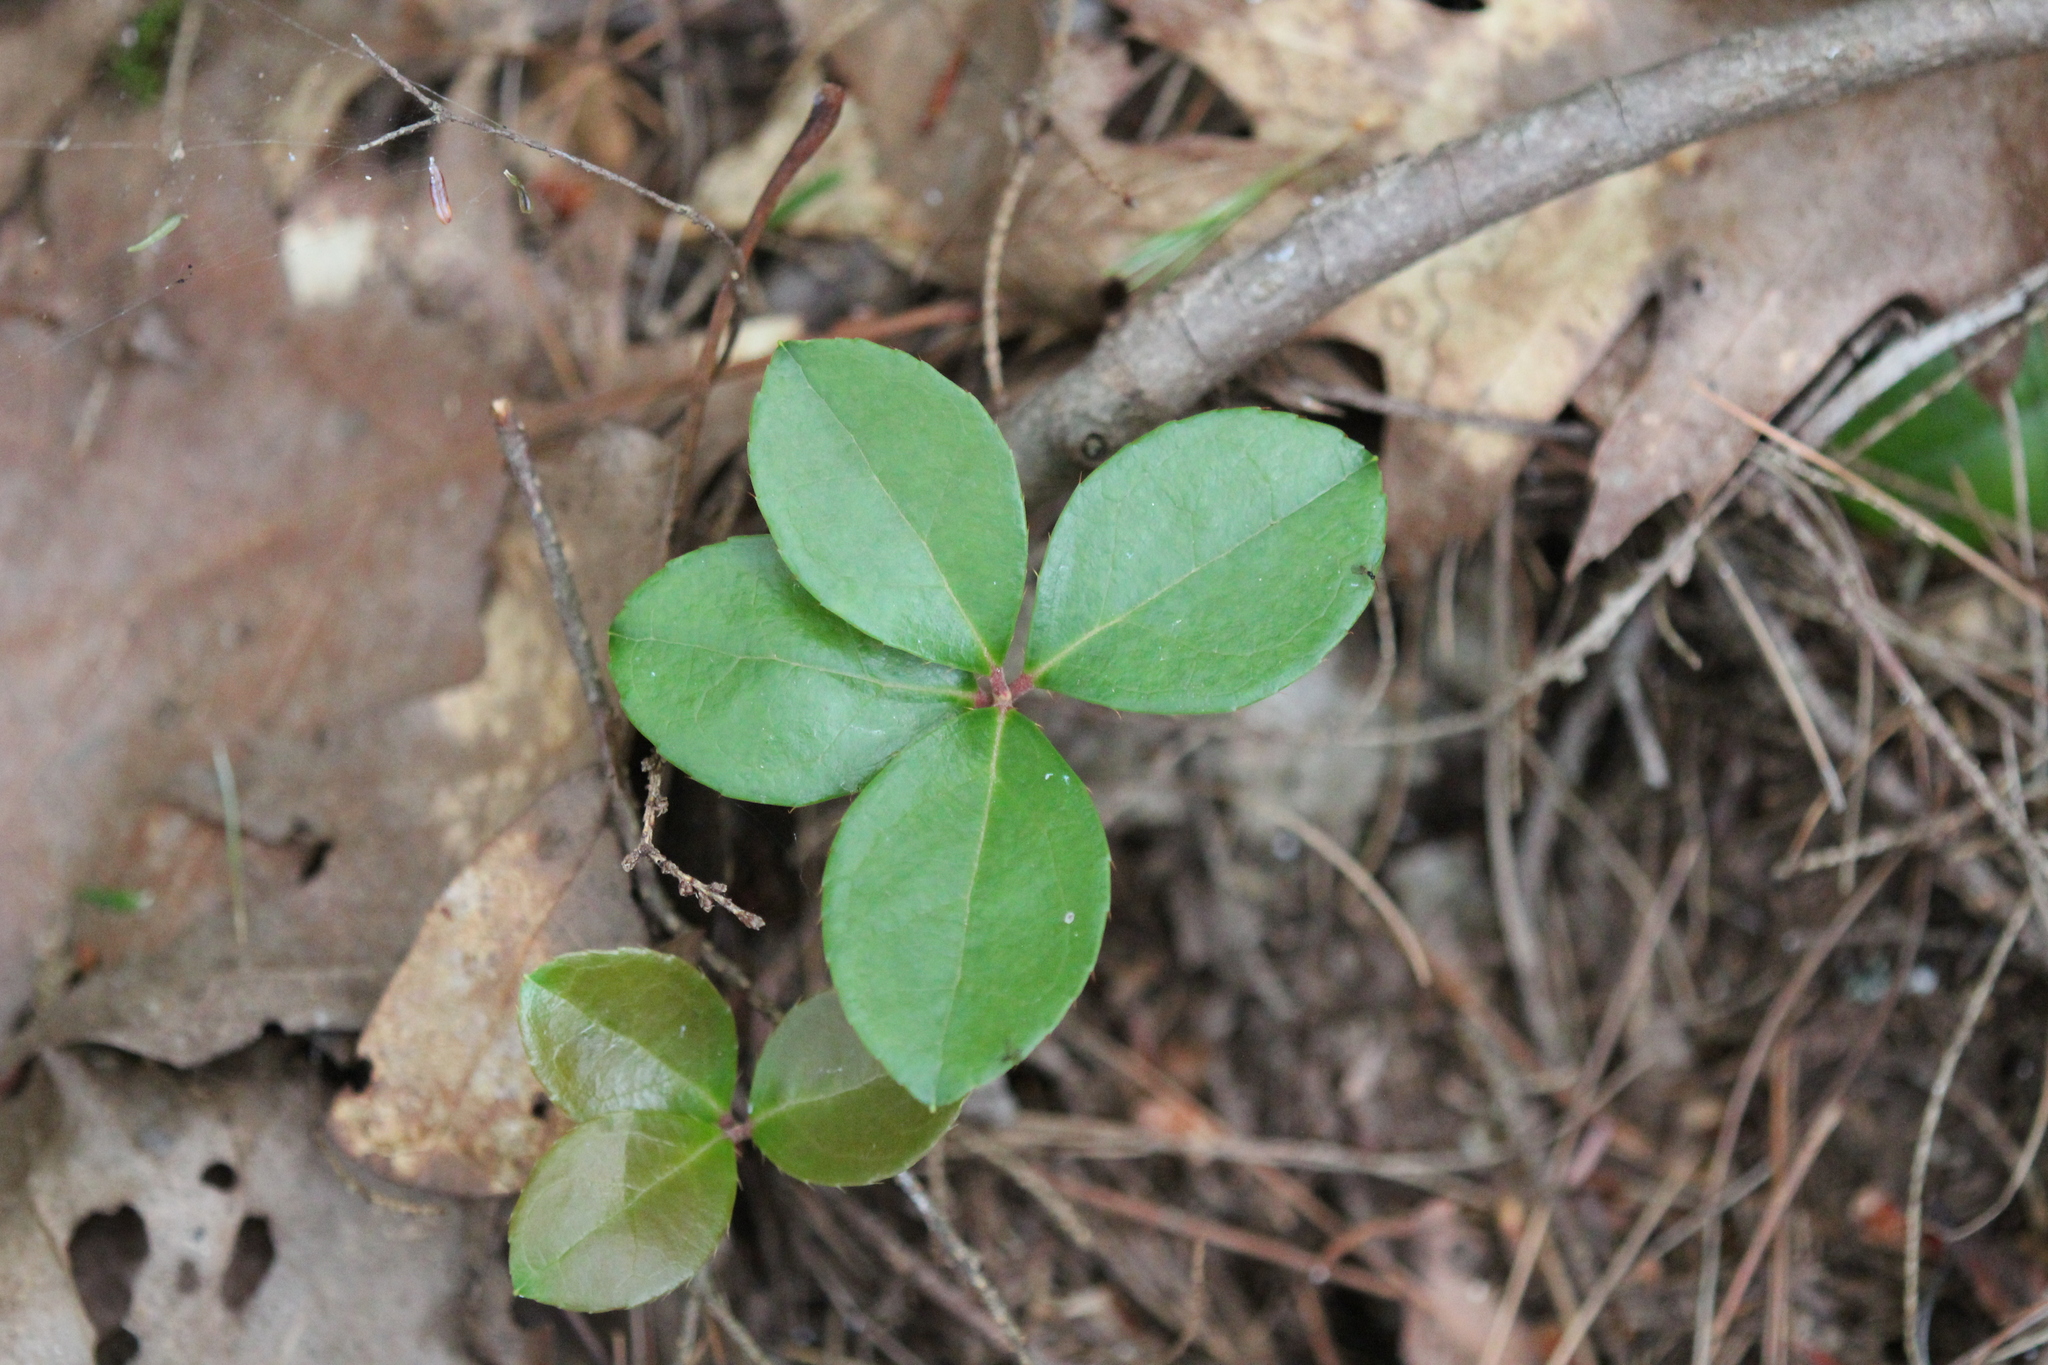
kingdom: Plantae
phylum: Tracheophyta
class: Magnoliopsida
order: Ericales
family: Ericaceae
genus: Gaultheria
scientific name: Gaultheria procumbens
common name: Checkerberry
